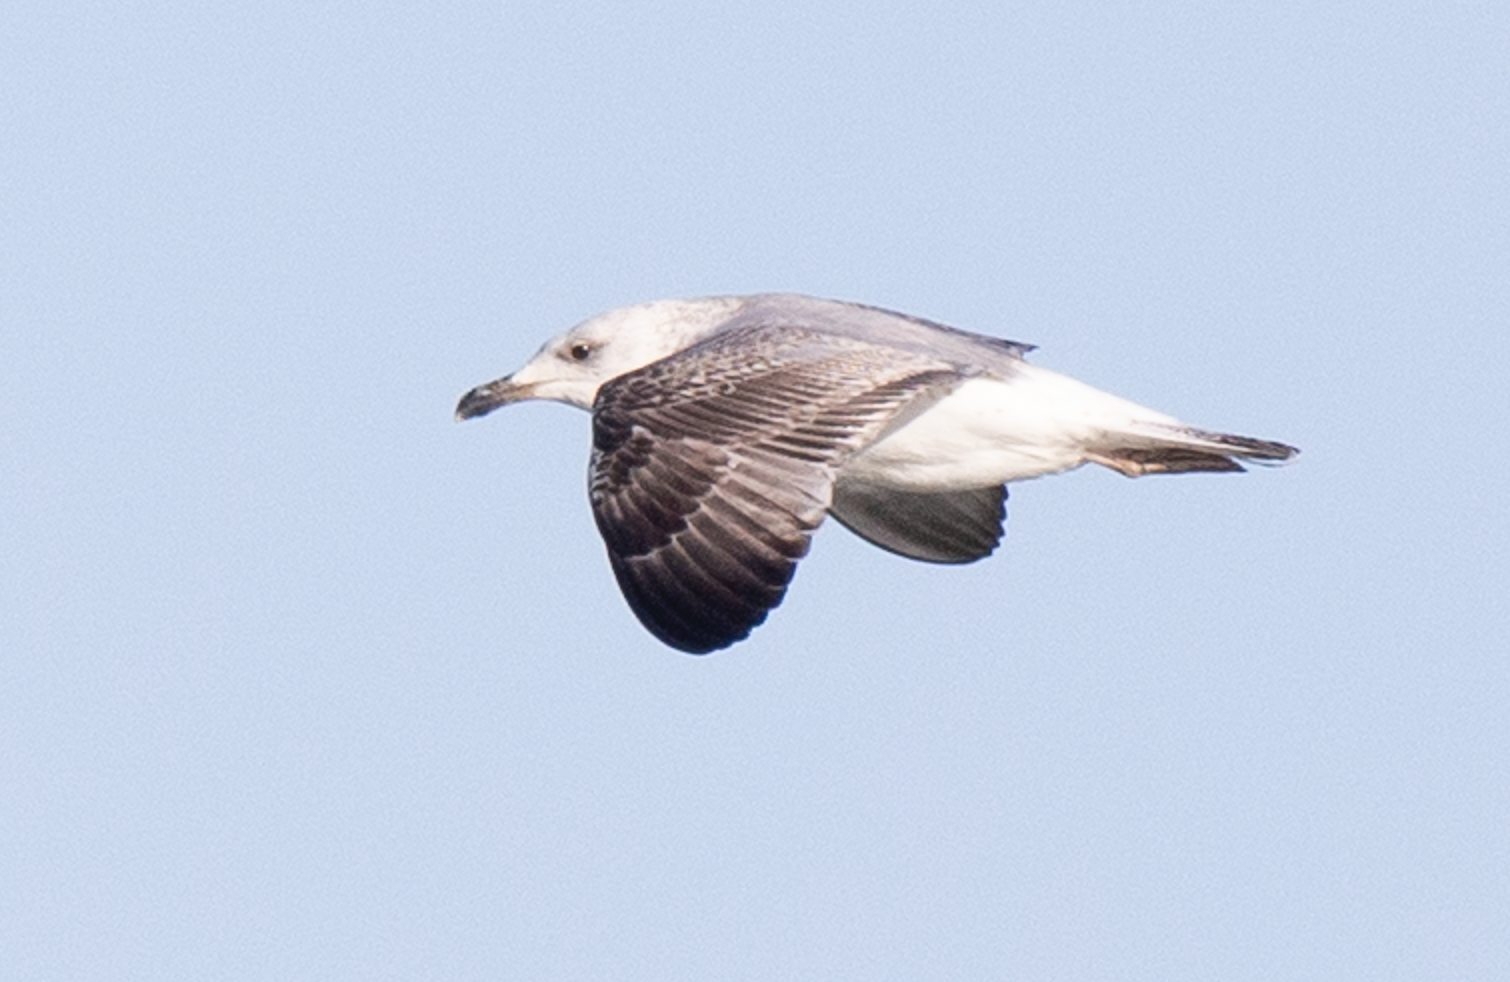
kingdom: Animalia
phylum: Chordata
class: Aves
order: Charadriiformes
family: Laridae
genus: Larus
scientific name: Larus michahellis
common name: Yellow-legged gull
